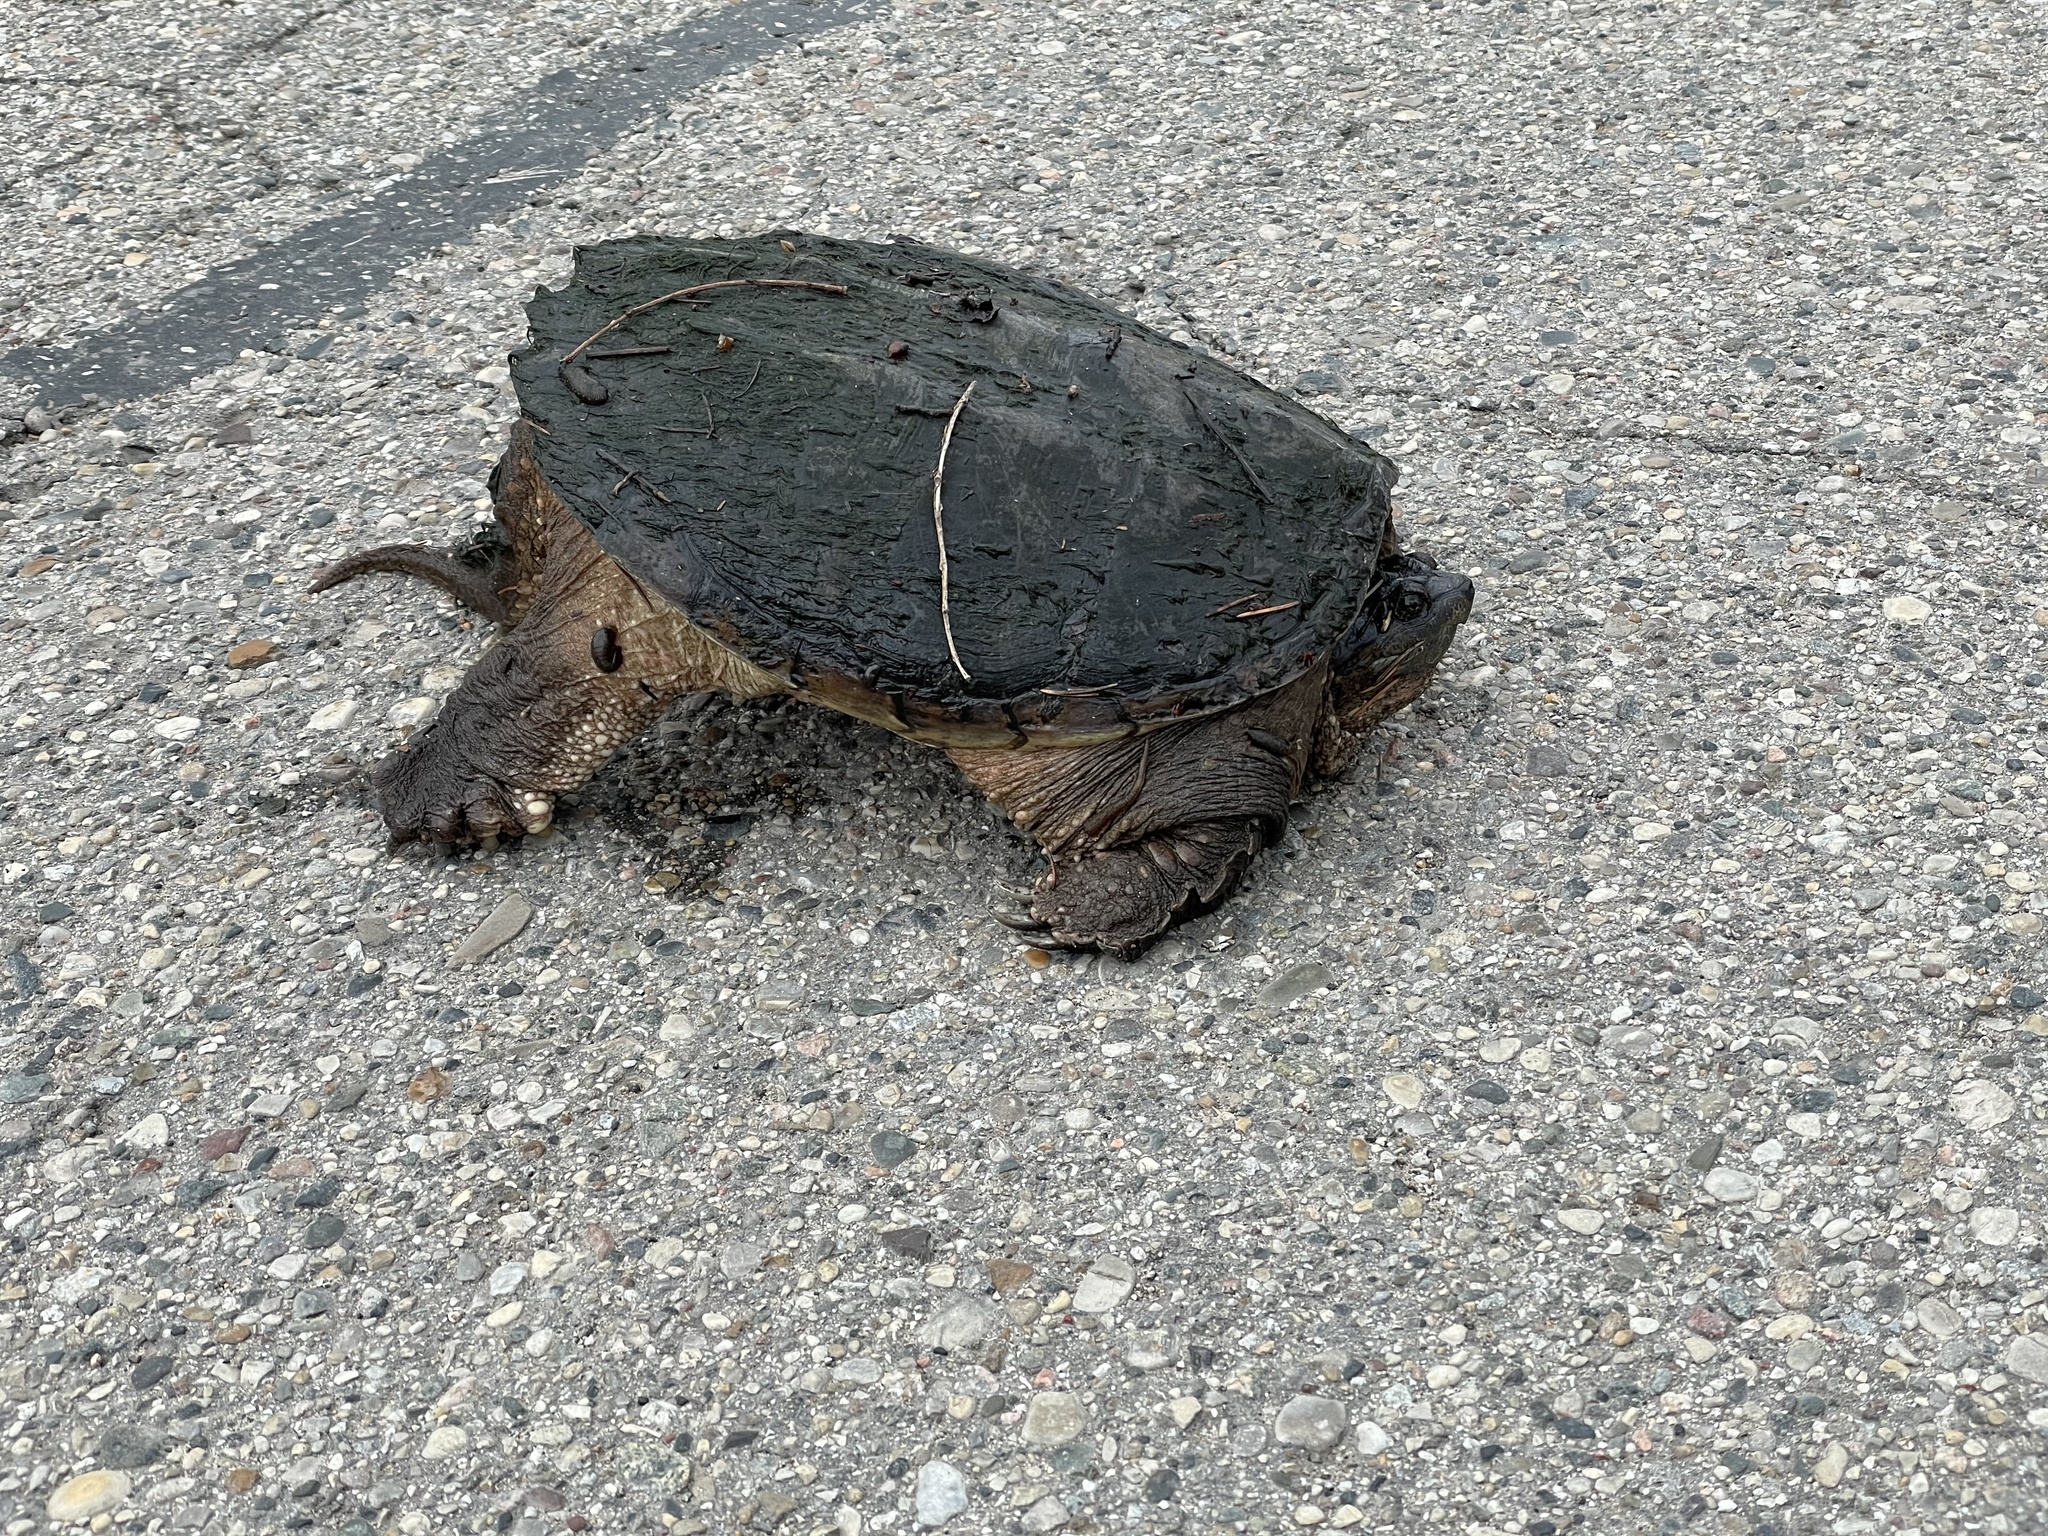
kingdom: Animalia
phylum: Chordata
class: Testudines
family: Chelydridae
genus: Chelydra
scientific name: Chelydra serpentina
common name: Common snapping turtle
